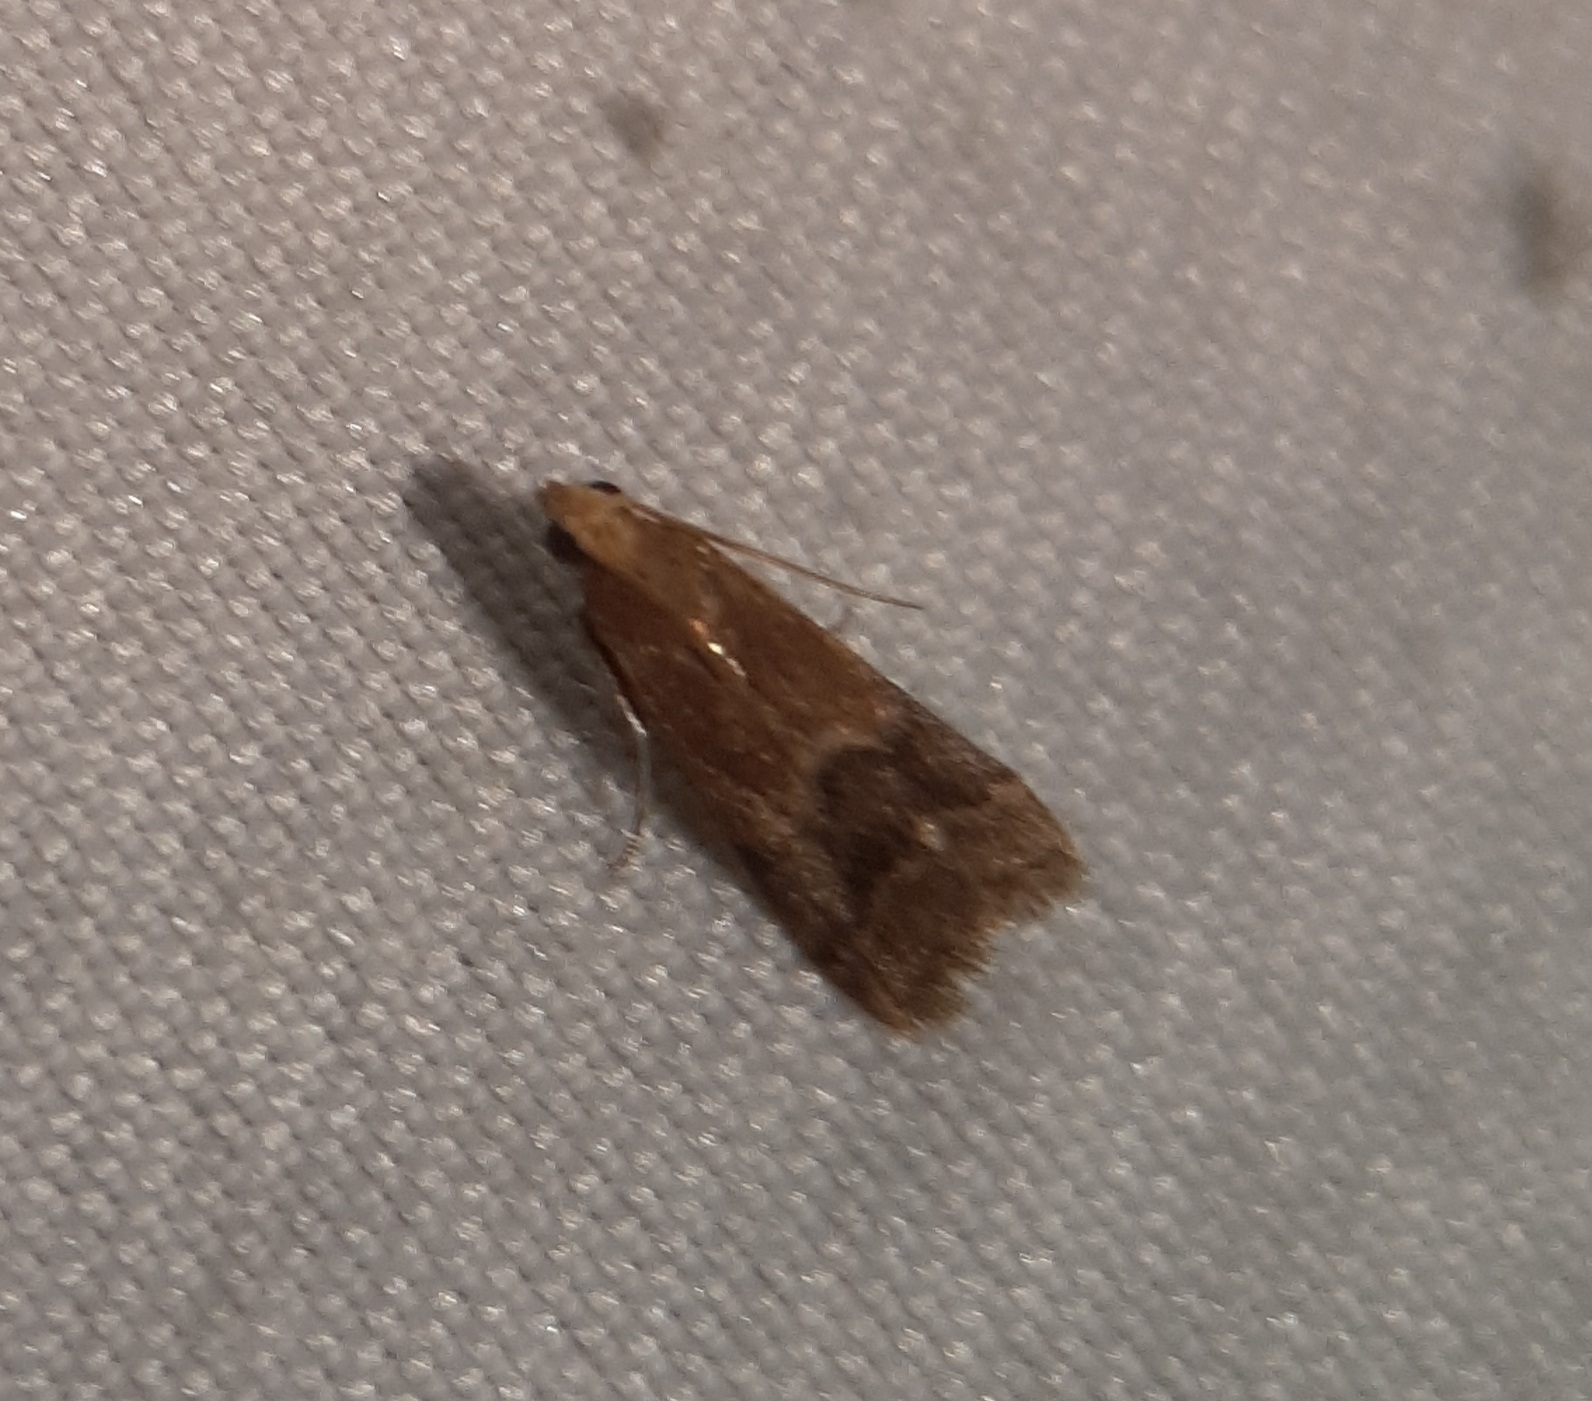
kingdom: Animalia
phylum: Arthropoda
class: Insecta
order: Lepidoptera
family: Pyralidae
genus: Eulogia
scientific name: Eulogia ochrifrontella
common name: Broad-banded eulogia moth
